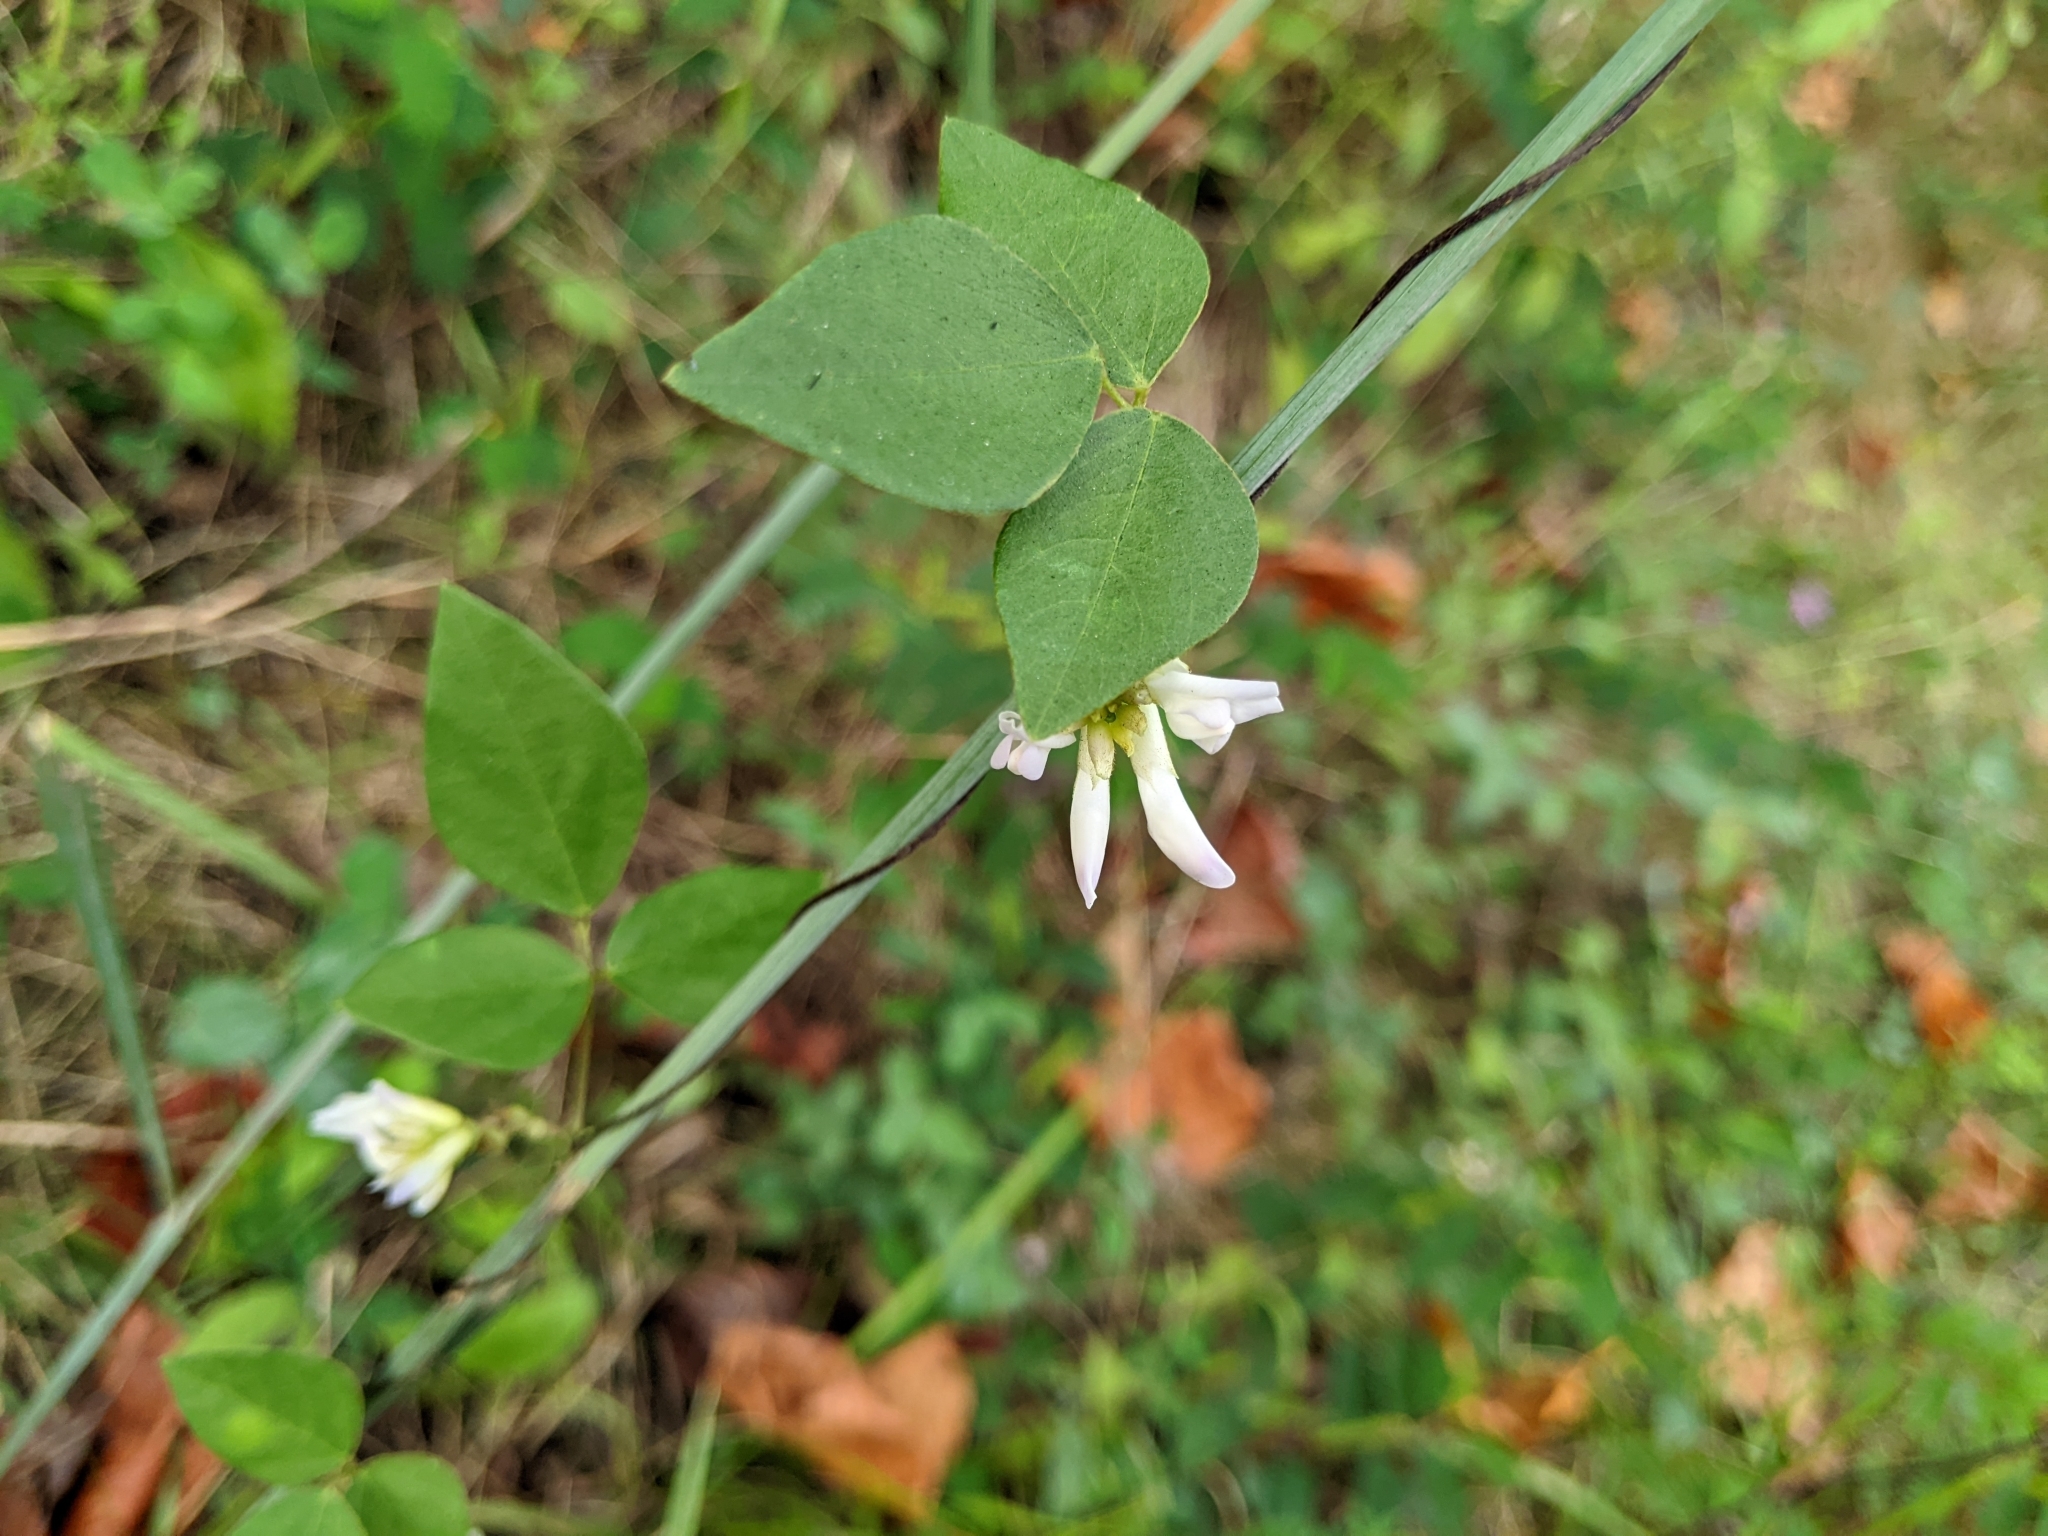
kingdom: Plantae
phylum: Tracheophyta
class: Magnoliopsida
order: Fabales
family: Fabaceae
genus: Amphicarpaea
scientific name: Amphicarpaea bracteata
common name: American hog peanut
